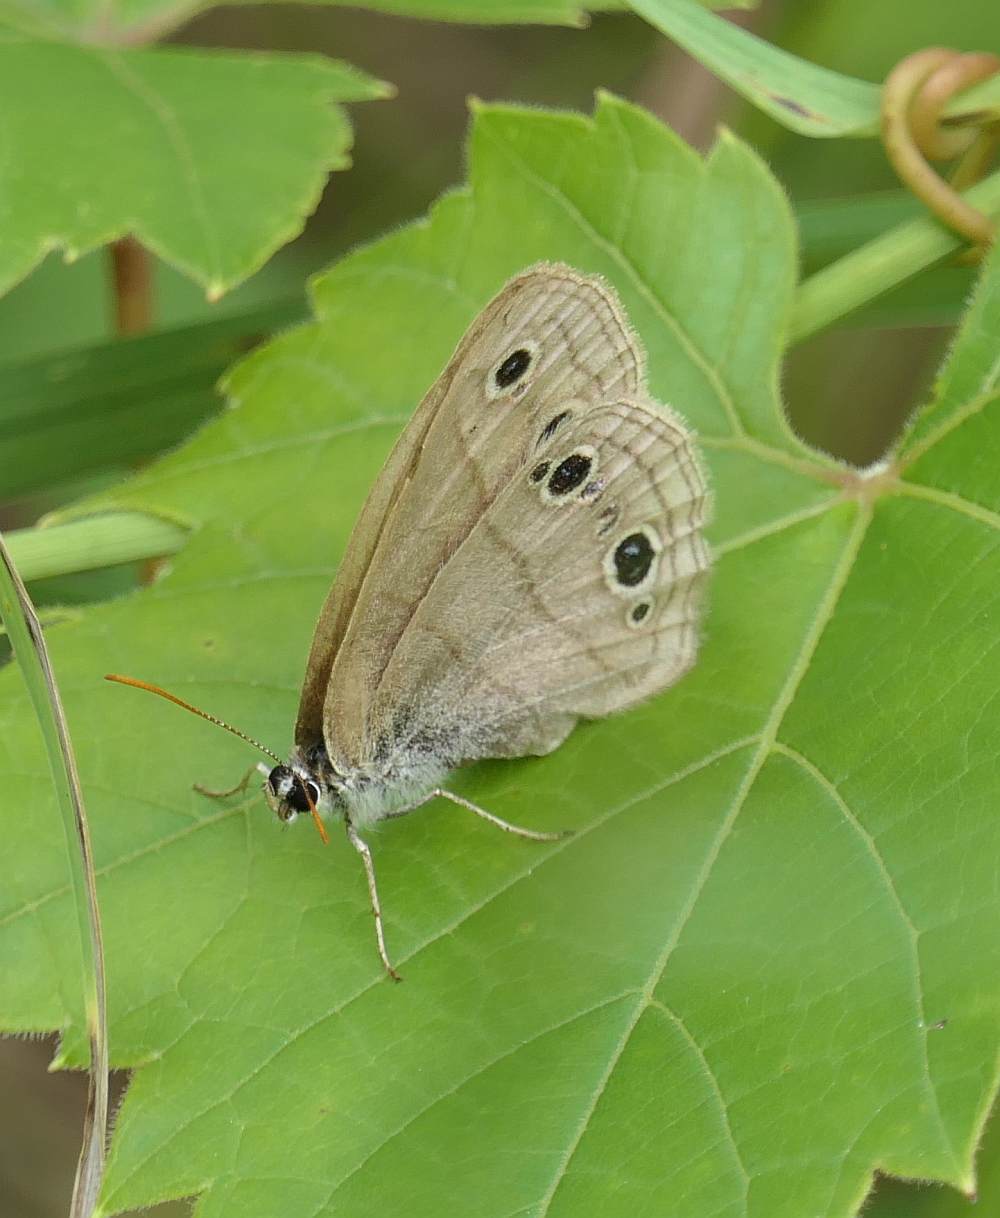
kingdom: Animalia
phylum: Arthropoda
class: Insecta
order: Lepidoptera
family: Nymphalidae
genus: Euptychia
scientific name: Euptychia cymela
